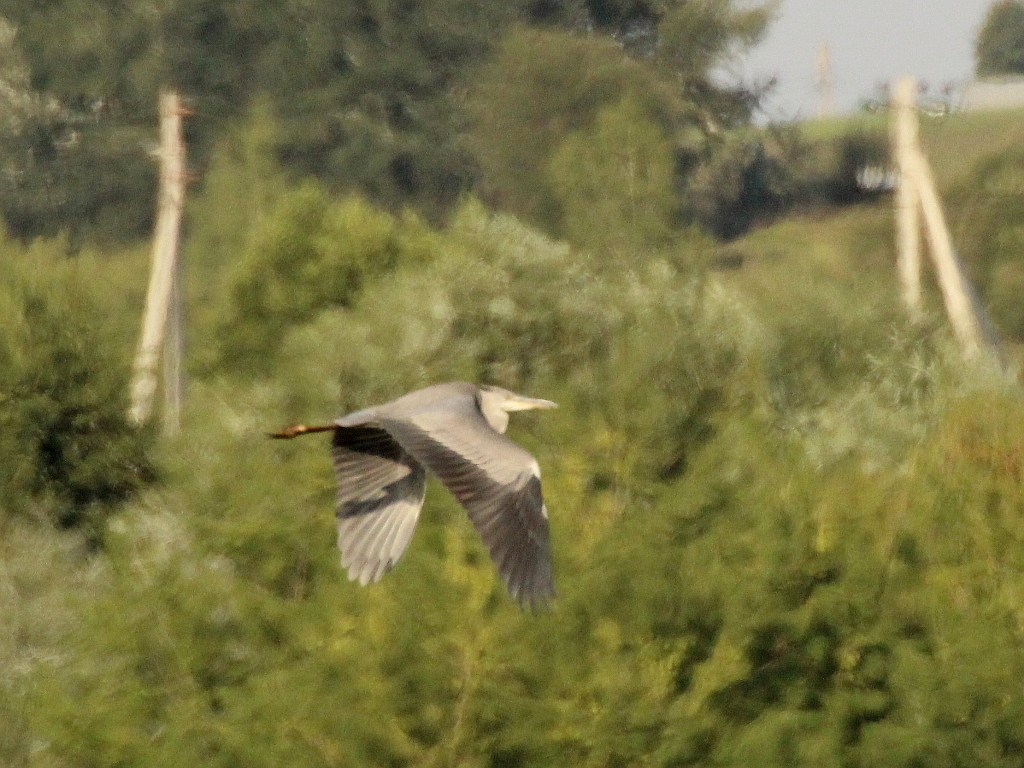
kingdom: Animalia
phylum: Chordata
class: Aves
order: Pelecaniformes
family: Ardeidae
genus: Ardea
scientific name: Ardea cinerea
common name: Grey heron
